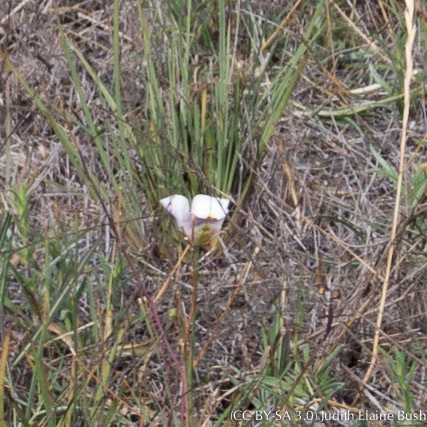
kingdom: Plantae
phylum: Tracheophyta
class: Liliopsida
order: Liliales
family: Liliaceae
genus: Calochortus
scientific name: Calochortus argillosus
